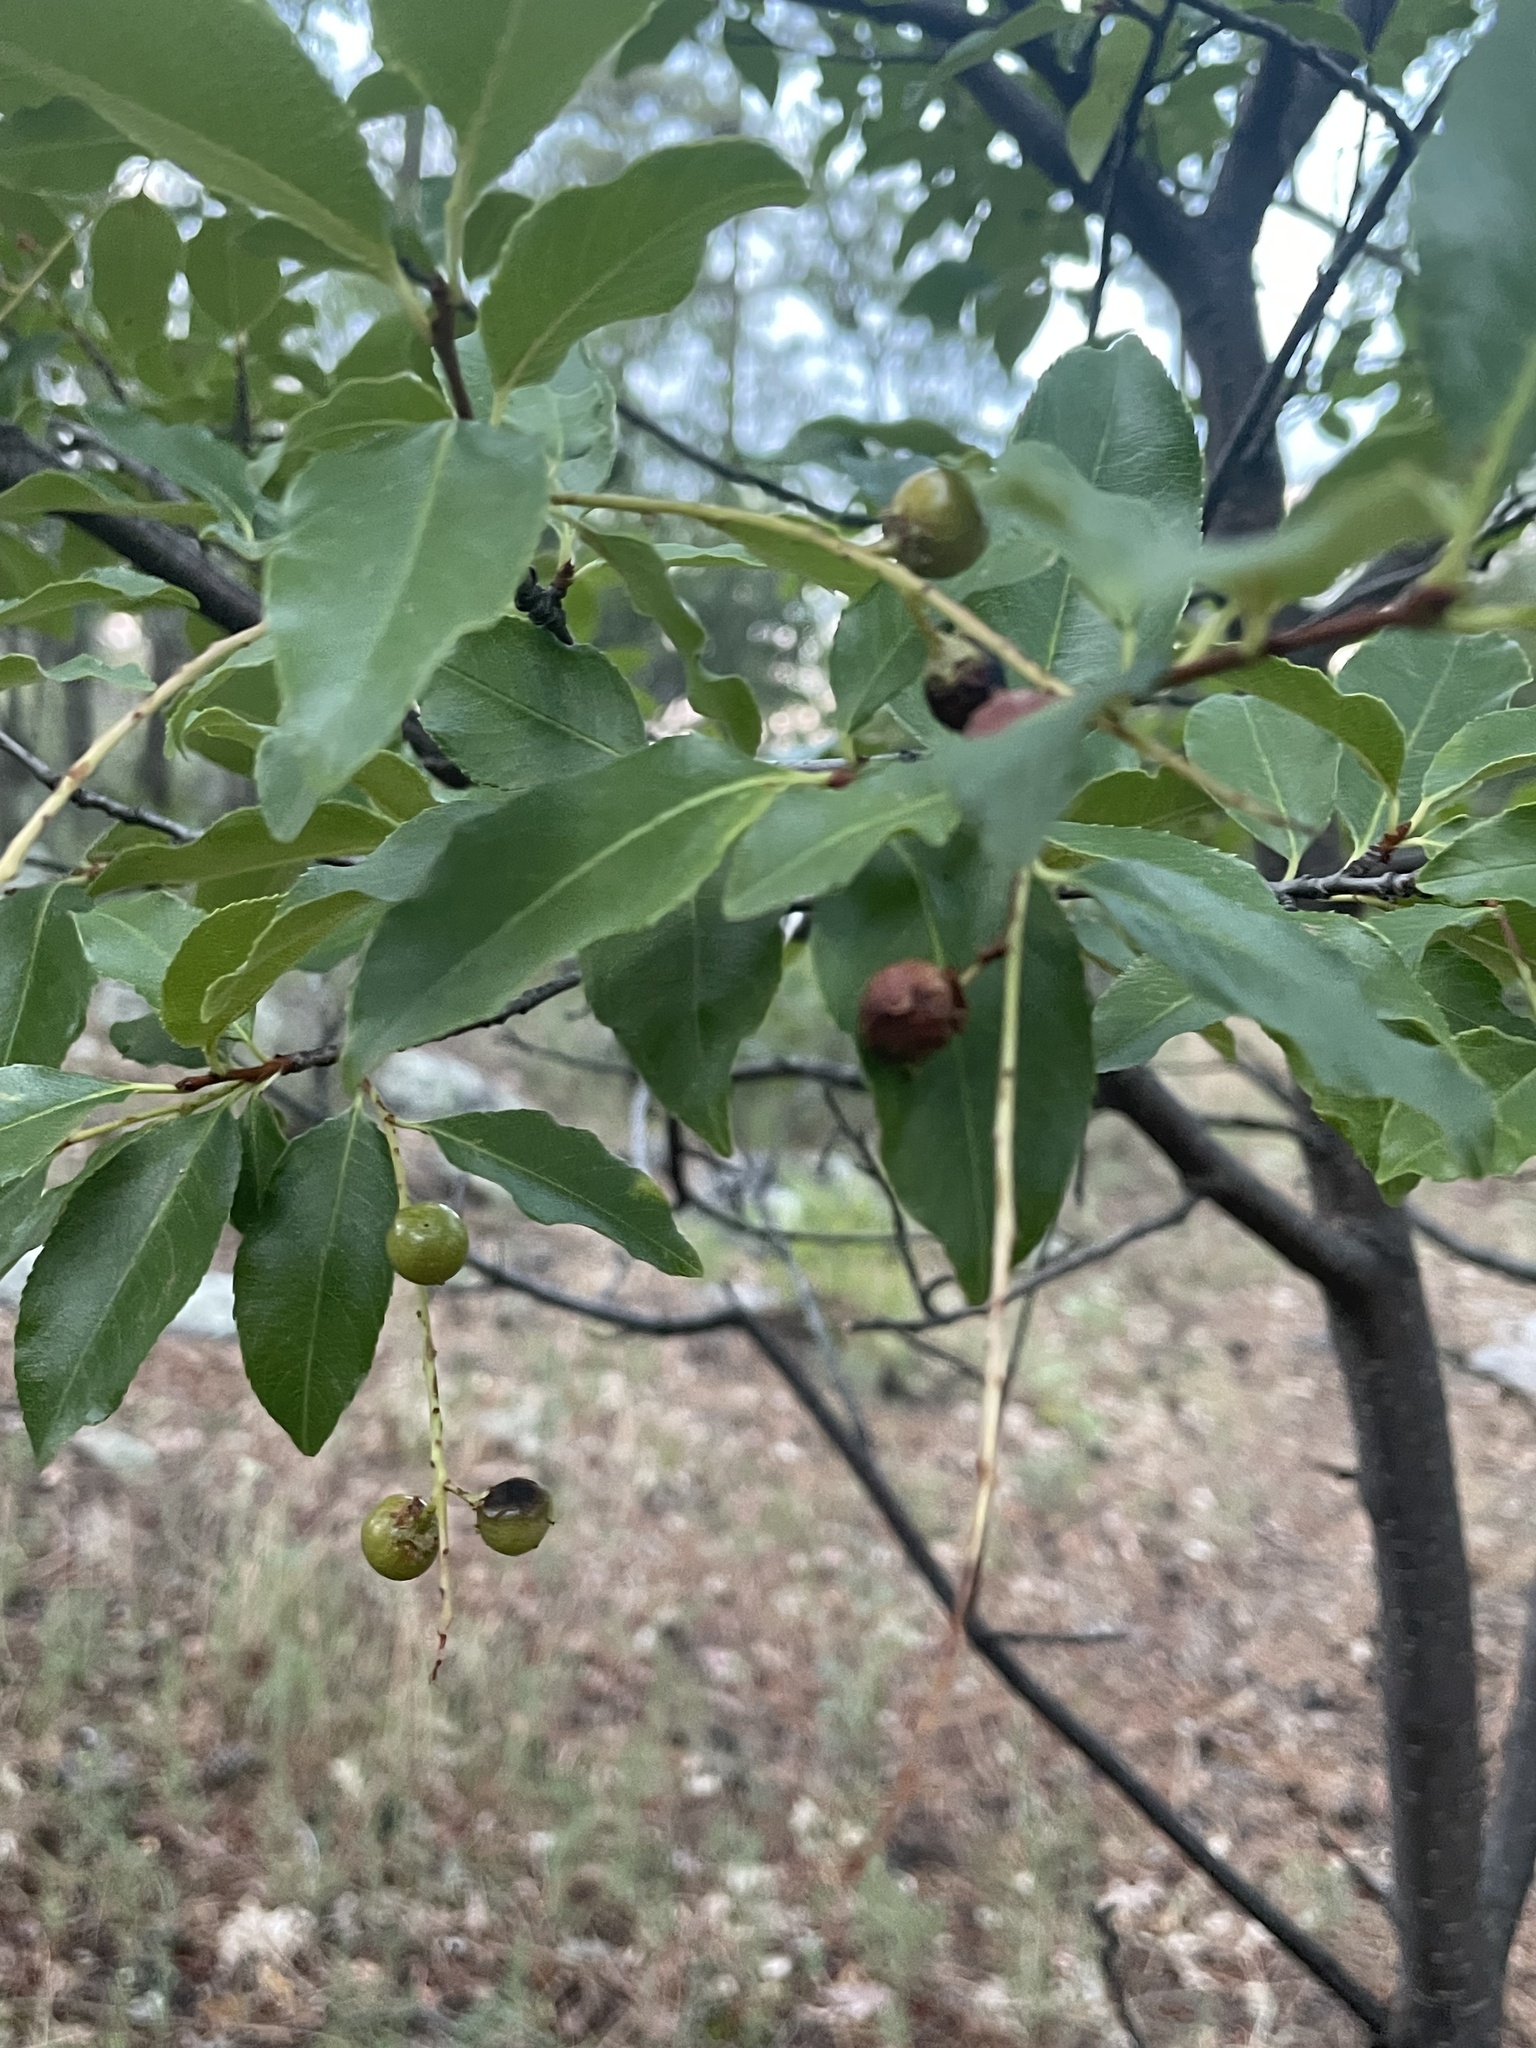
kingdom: Plantae
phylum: Tracheophyta
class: Magnoliopsida
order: Rosales
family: Rosaceae
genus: Prunus
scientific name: Prunus serotina
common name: Black cherry
